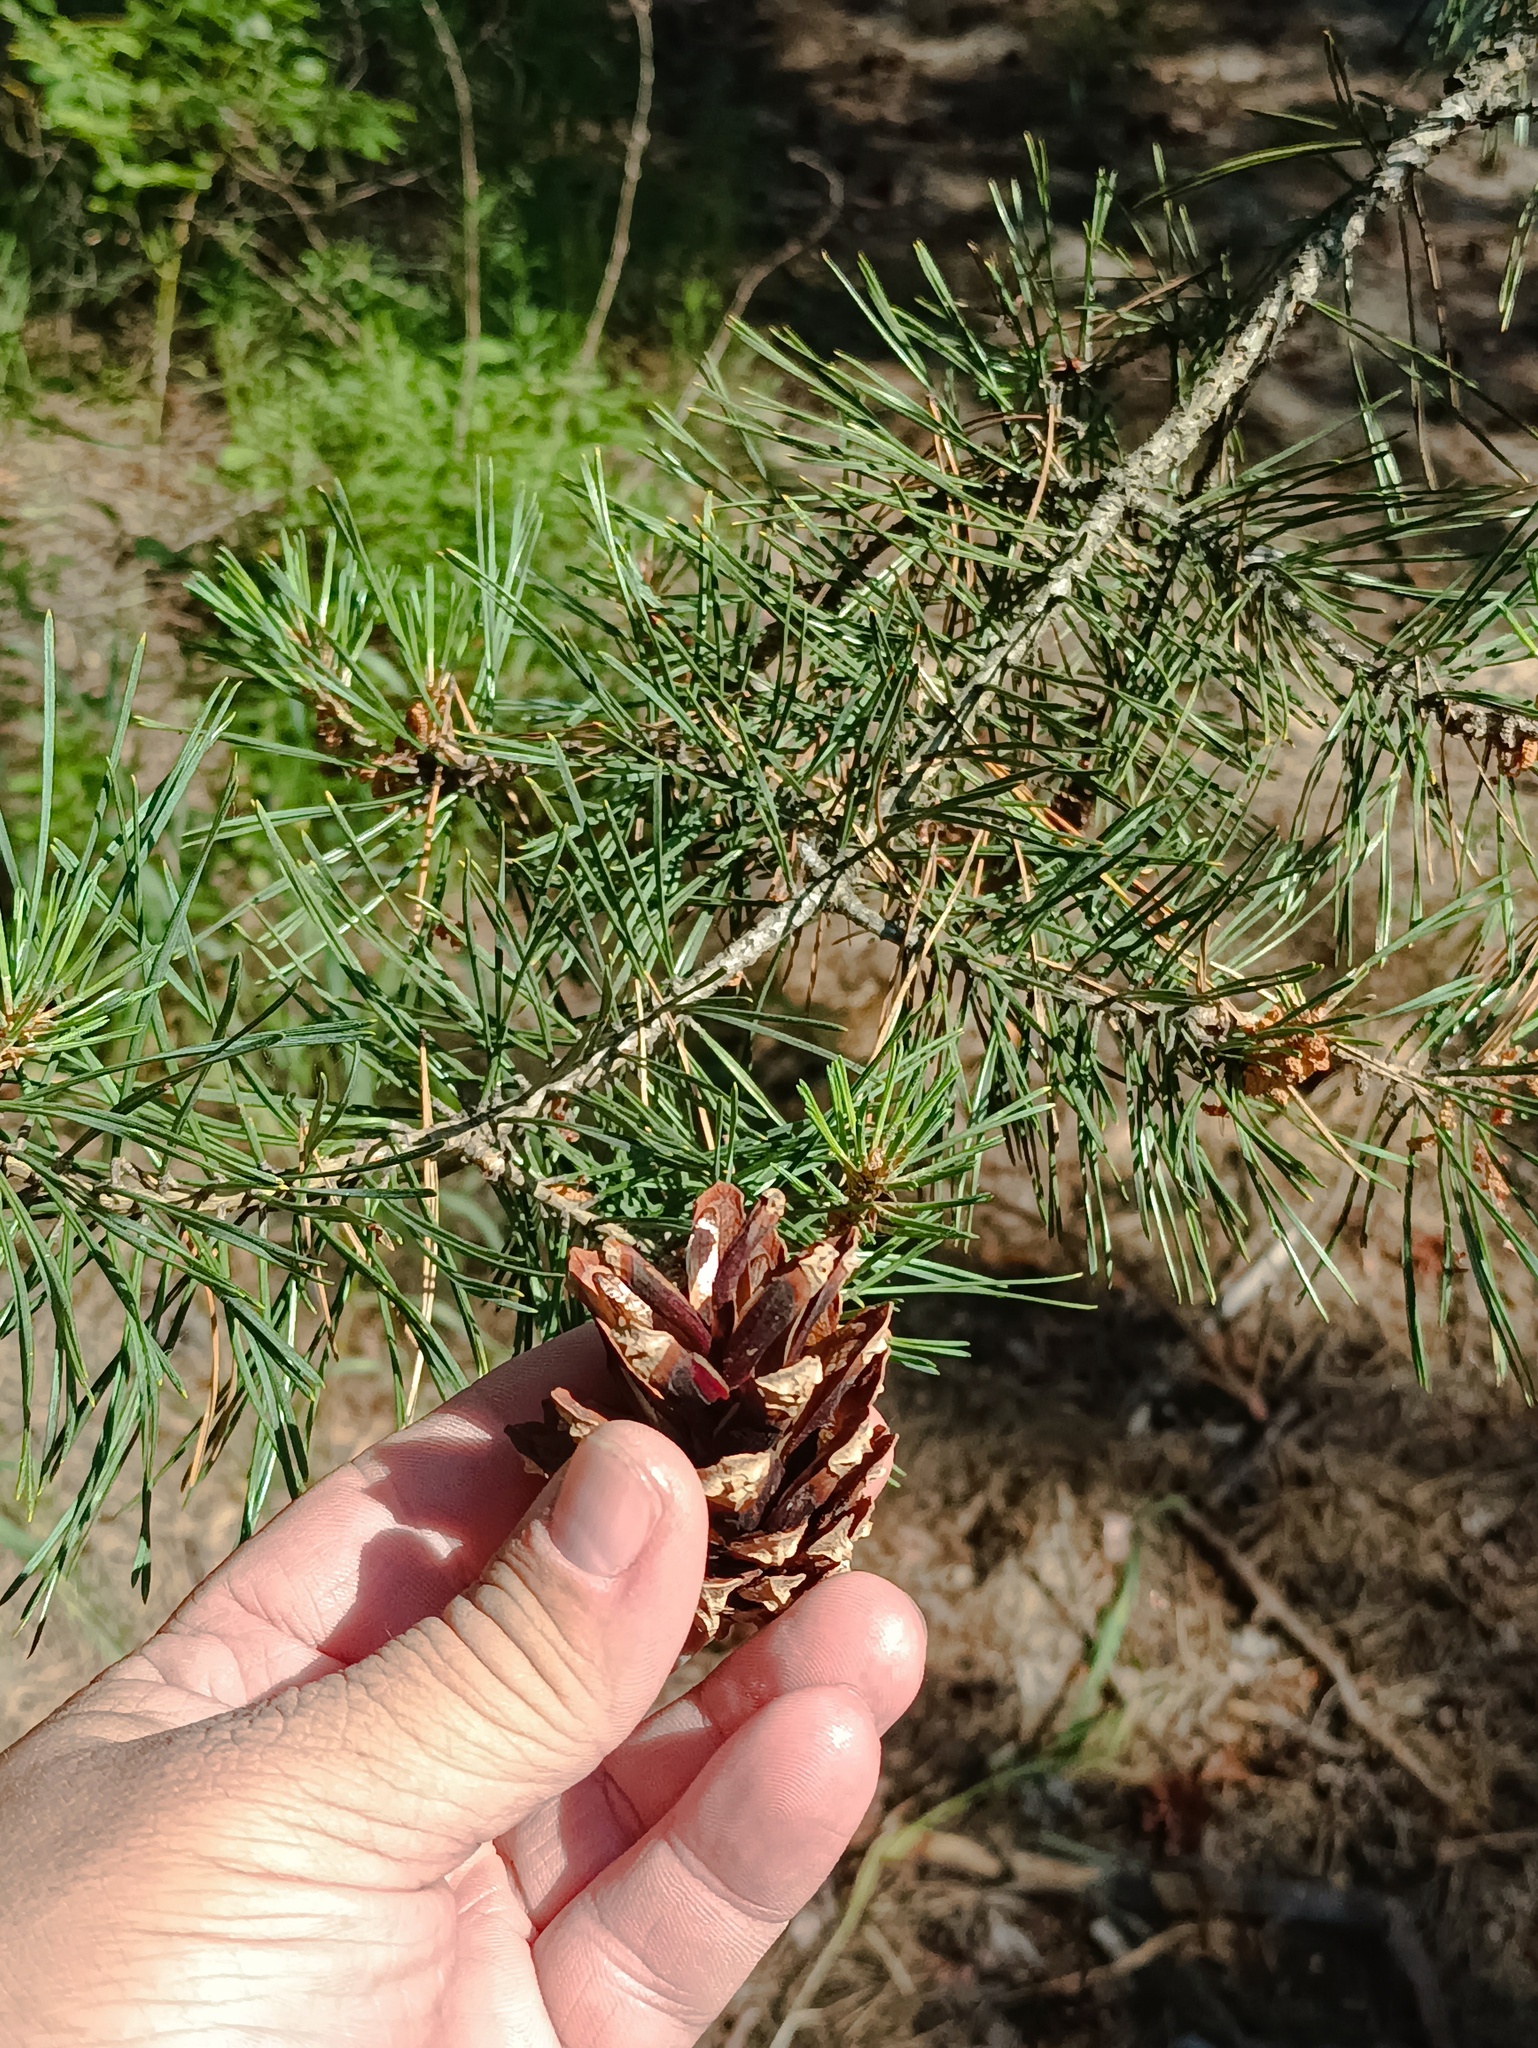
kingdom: Plantae
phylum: Tracheophyta
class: Pinopsida
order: Pinales
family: Pinaceae
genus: Pinus
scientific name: Pinus sylvestris
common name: Scots pine
